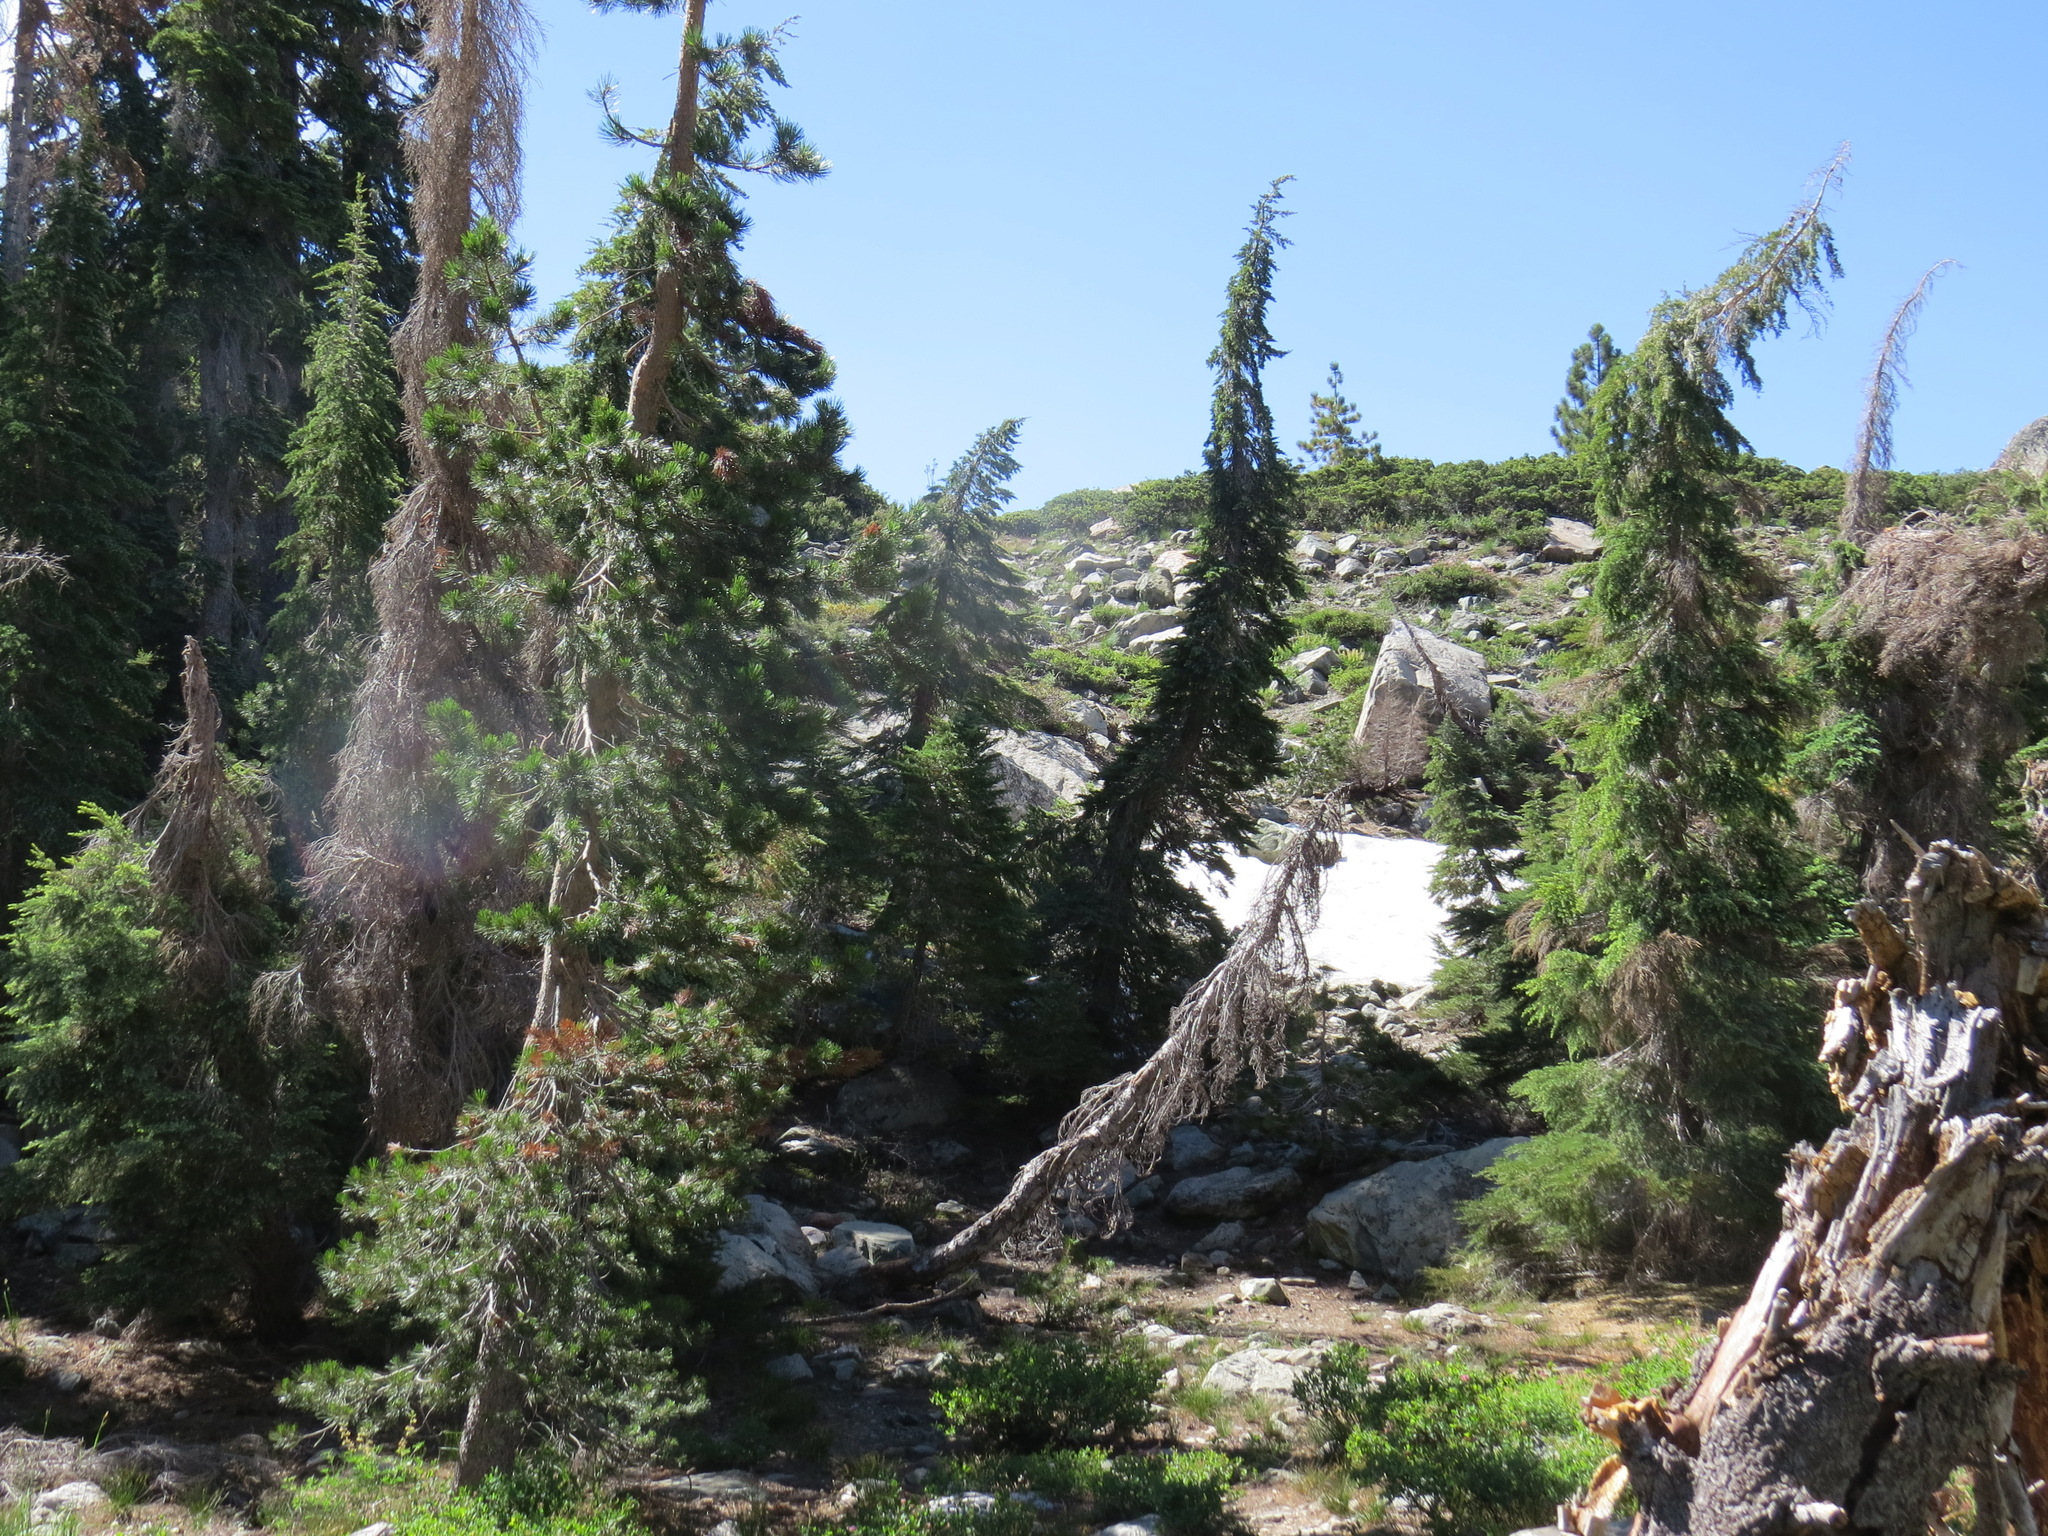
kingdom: Plantae
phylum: Tracheophyta
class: Pinopsida
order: Pinales
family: Pinaceae
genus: Tsuga
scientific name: Tsuga mertensiana
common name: Mountain hemlock
